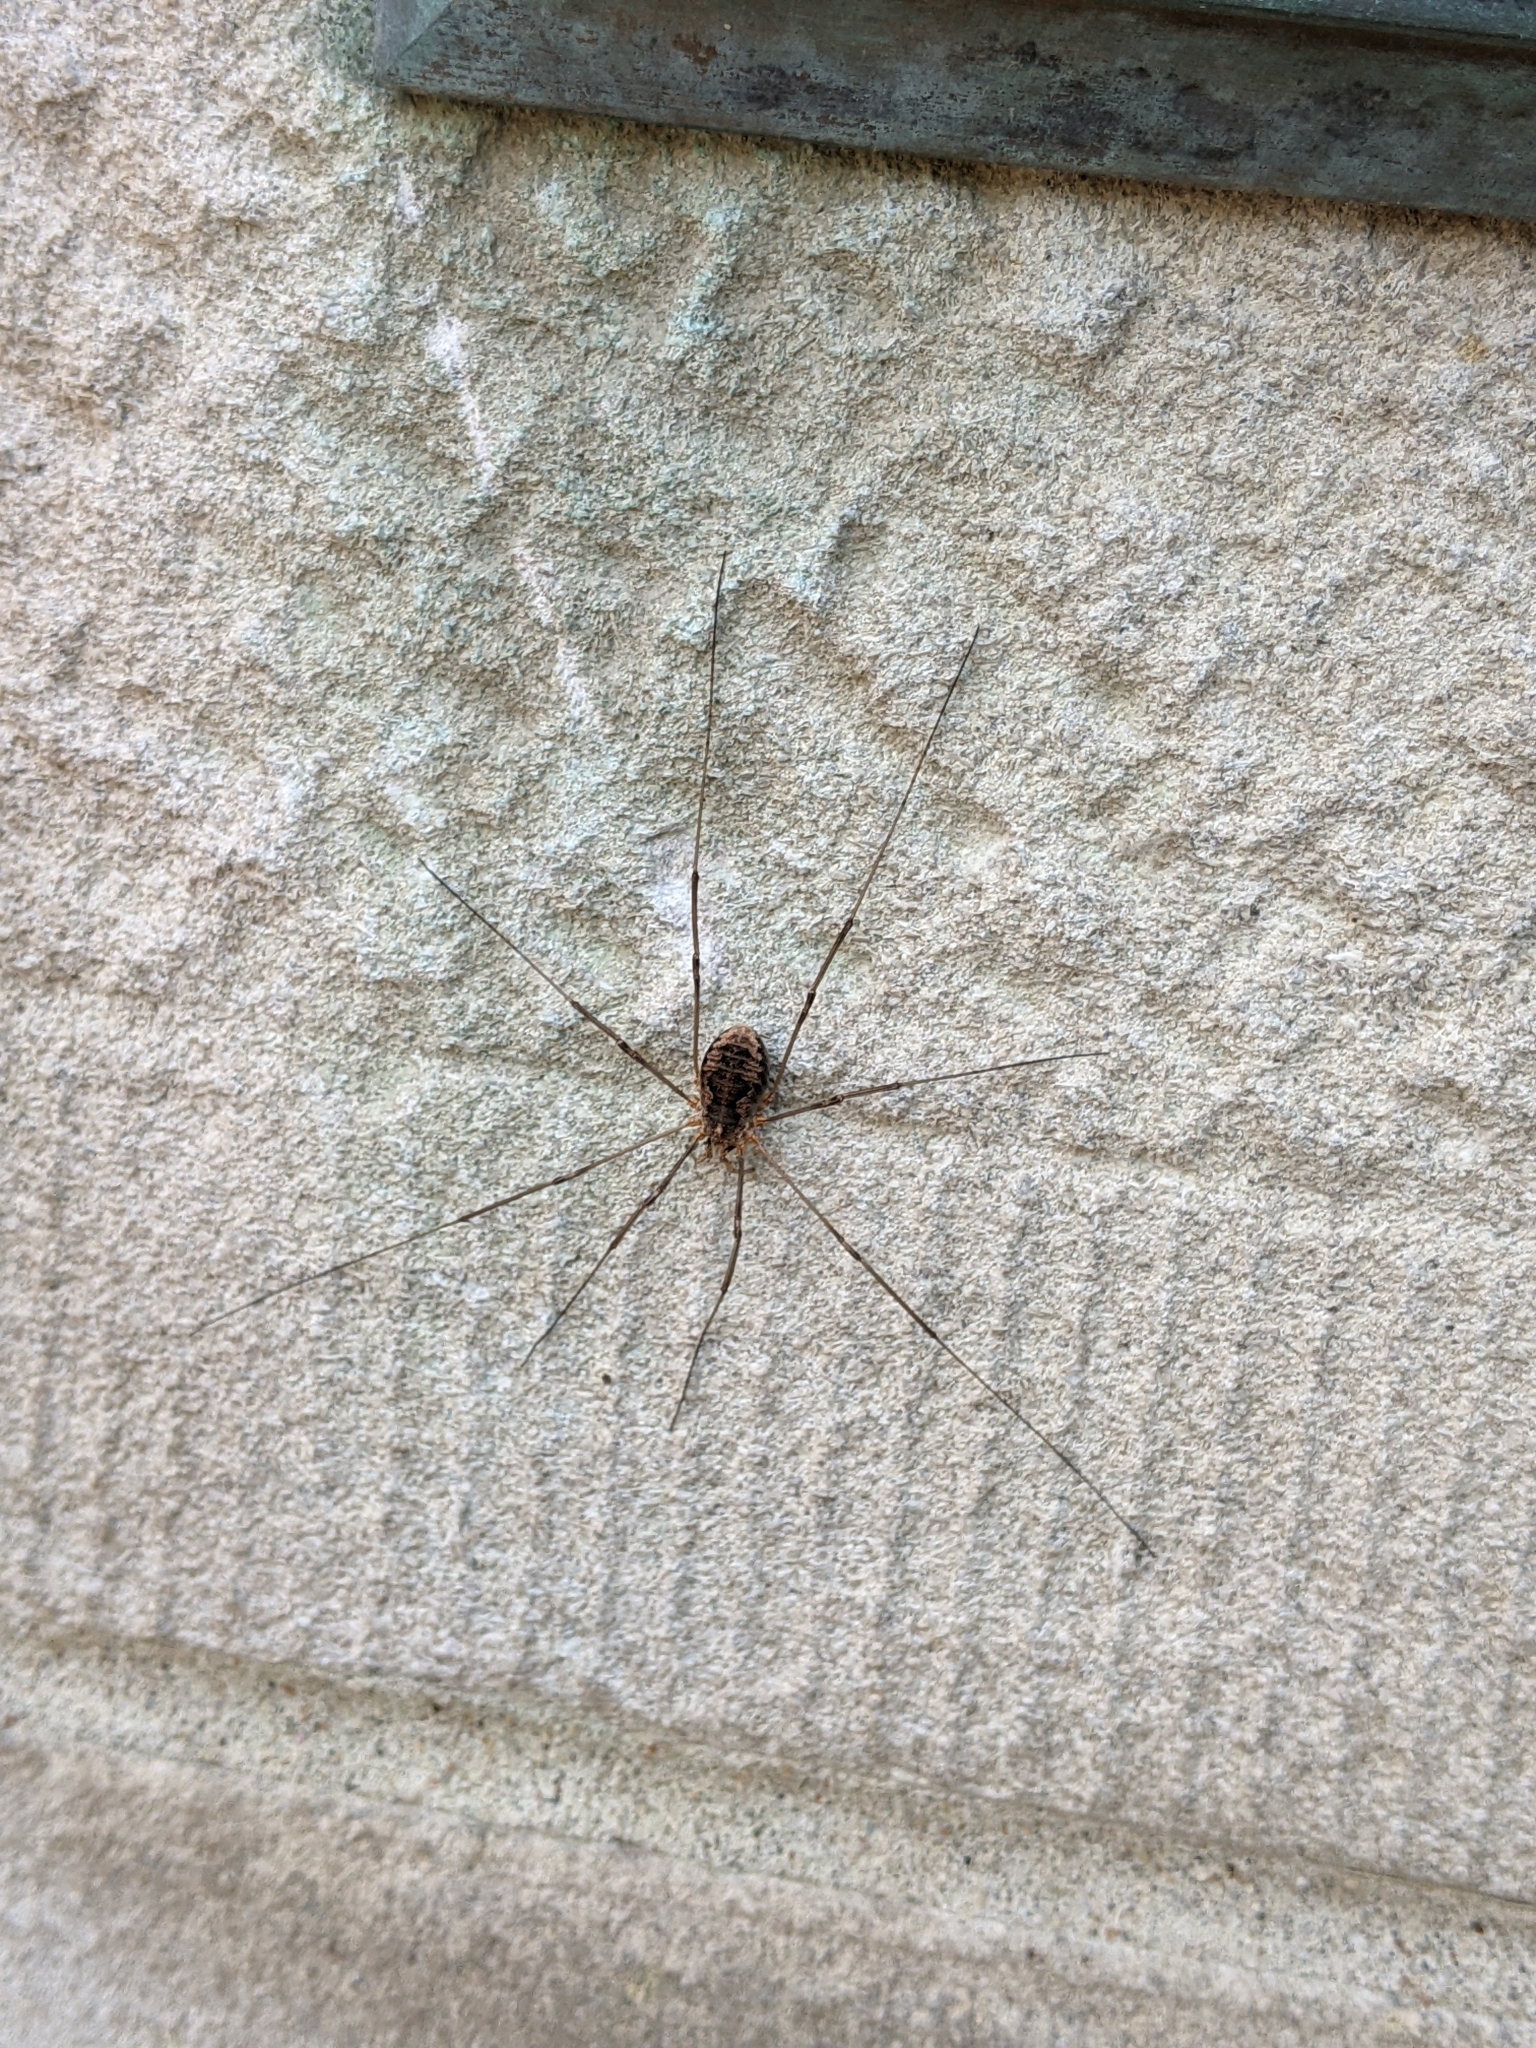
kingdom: Animalia
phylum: Arthropoda
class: Arachnida
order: Opiliones
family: Phalangiidae
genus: Phalangium
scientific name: Phalangium opilio
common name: Daddy longleg
